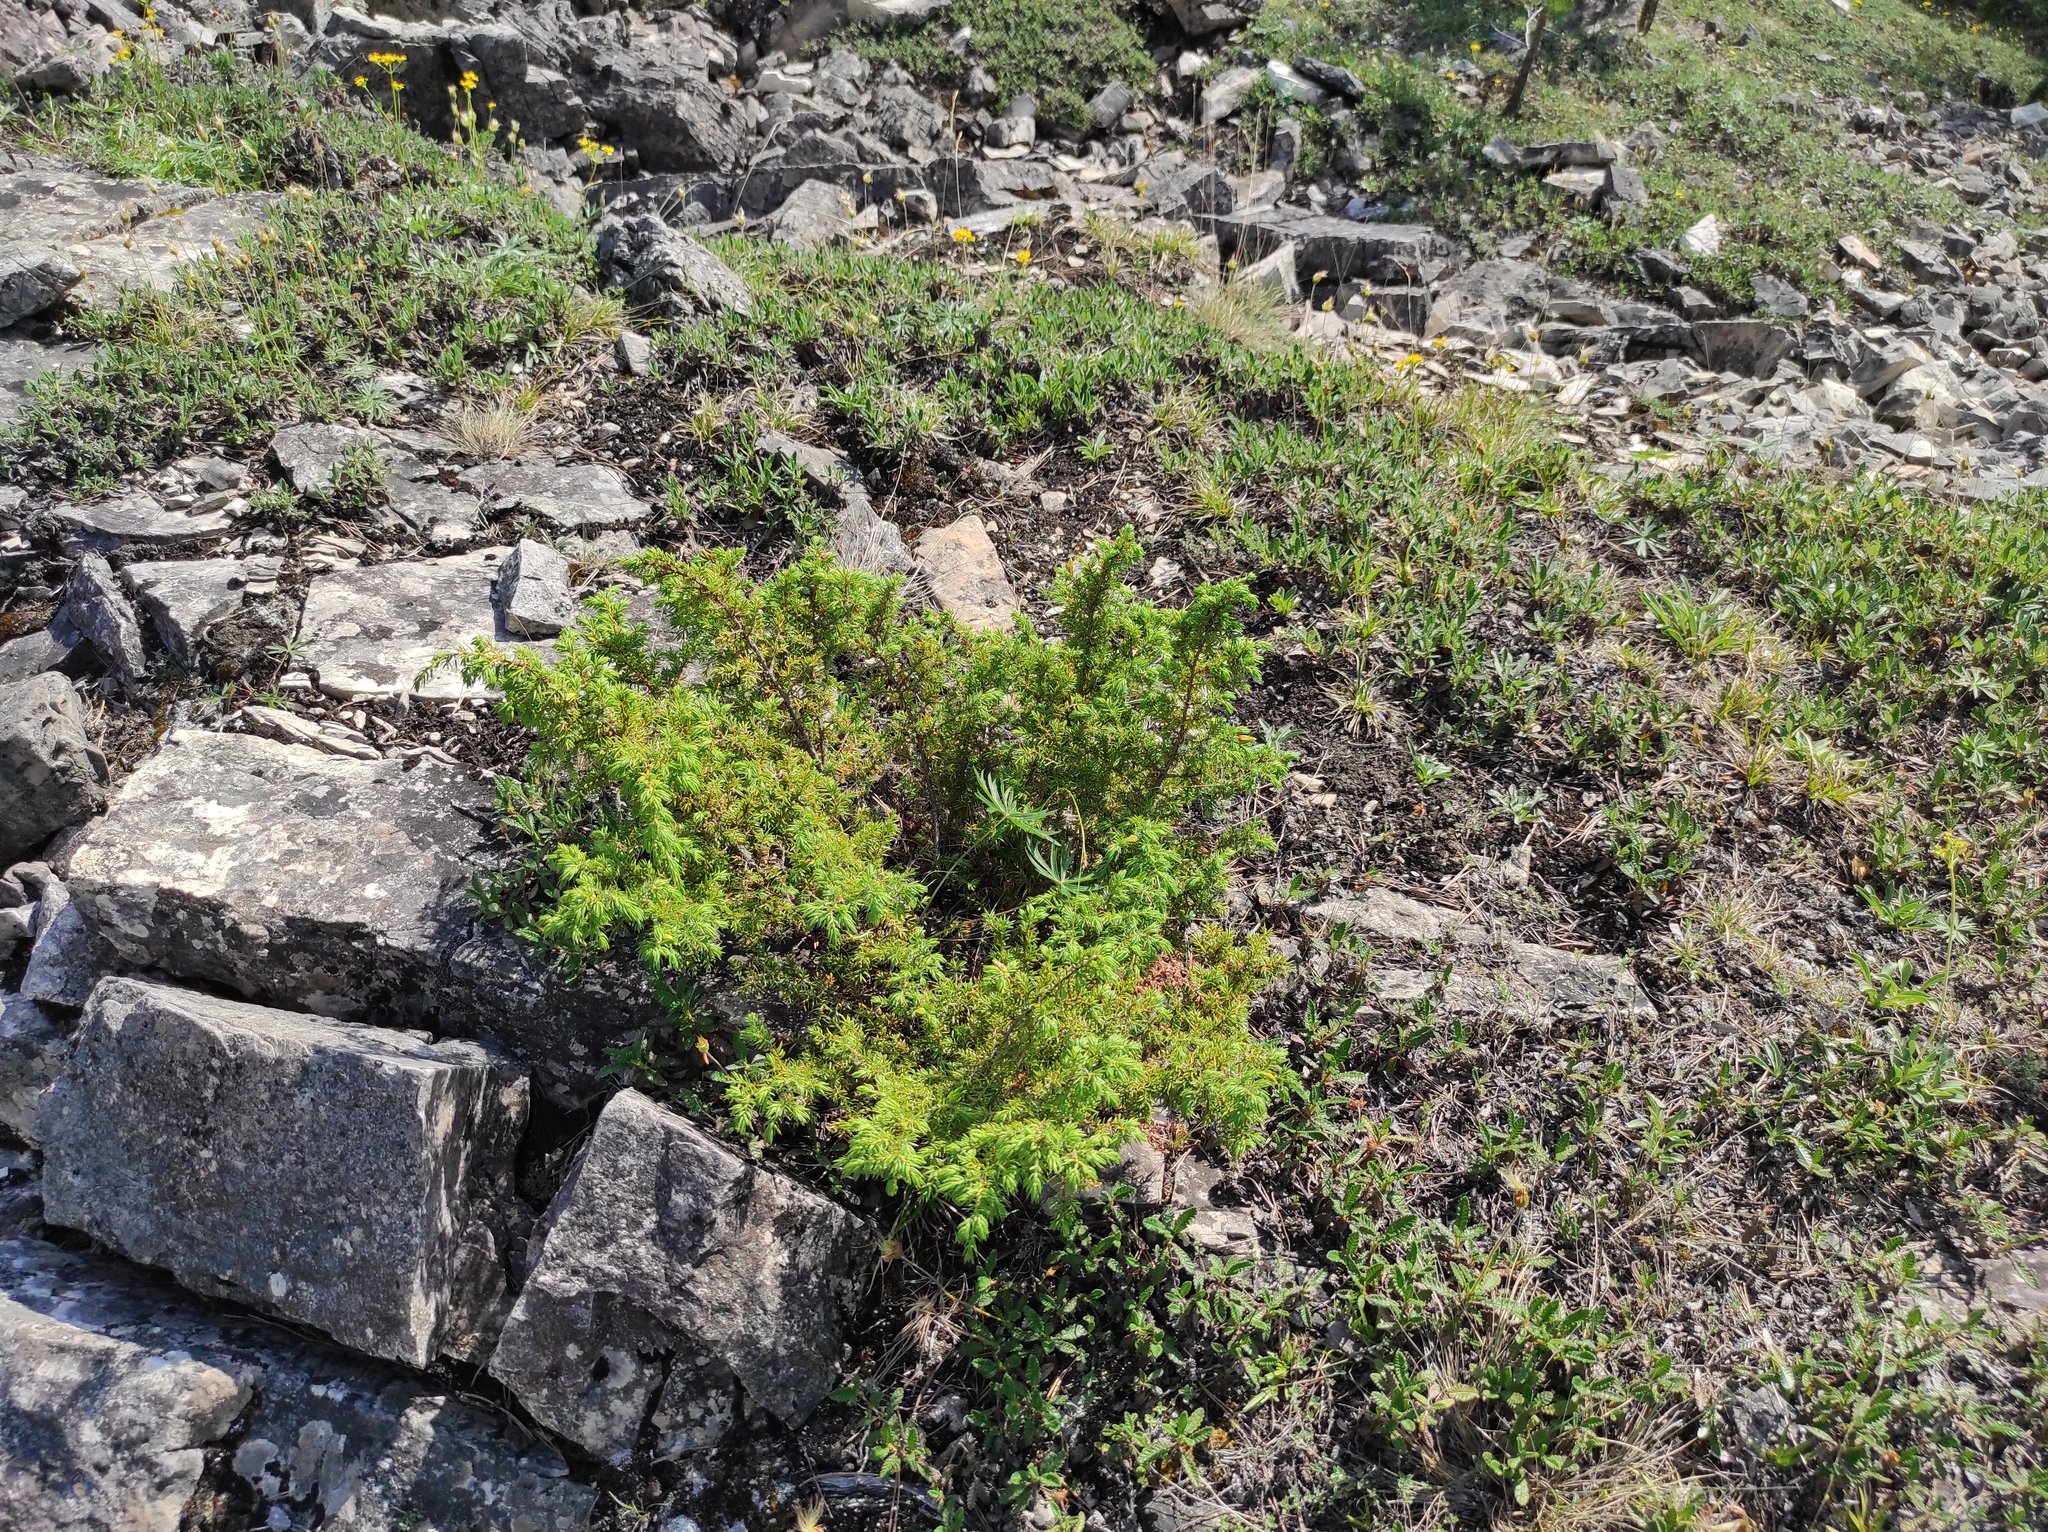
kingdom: Plantae
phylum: Tracheophyta
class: Pinopsida
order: Pinales
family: Cupressaceae
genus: Juniperus
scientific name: Juniperus communis
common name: Common juniper
